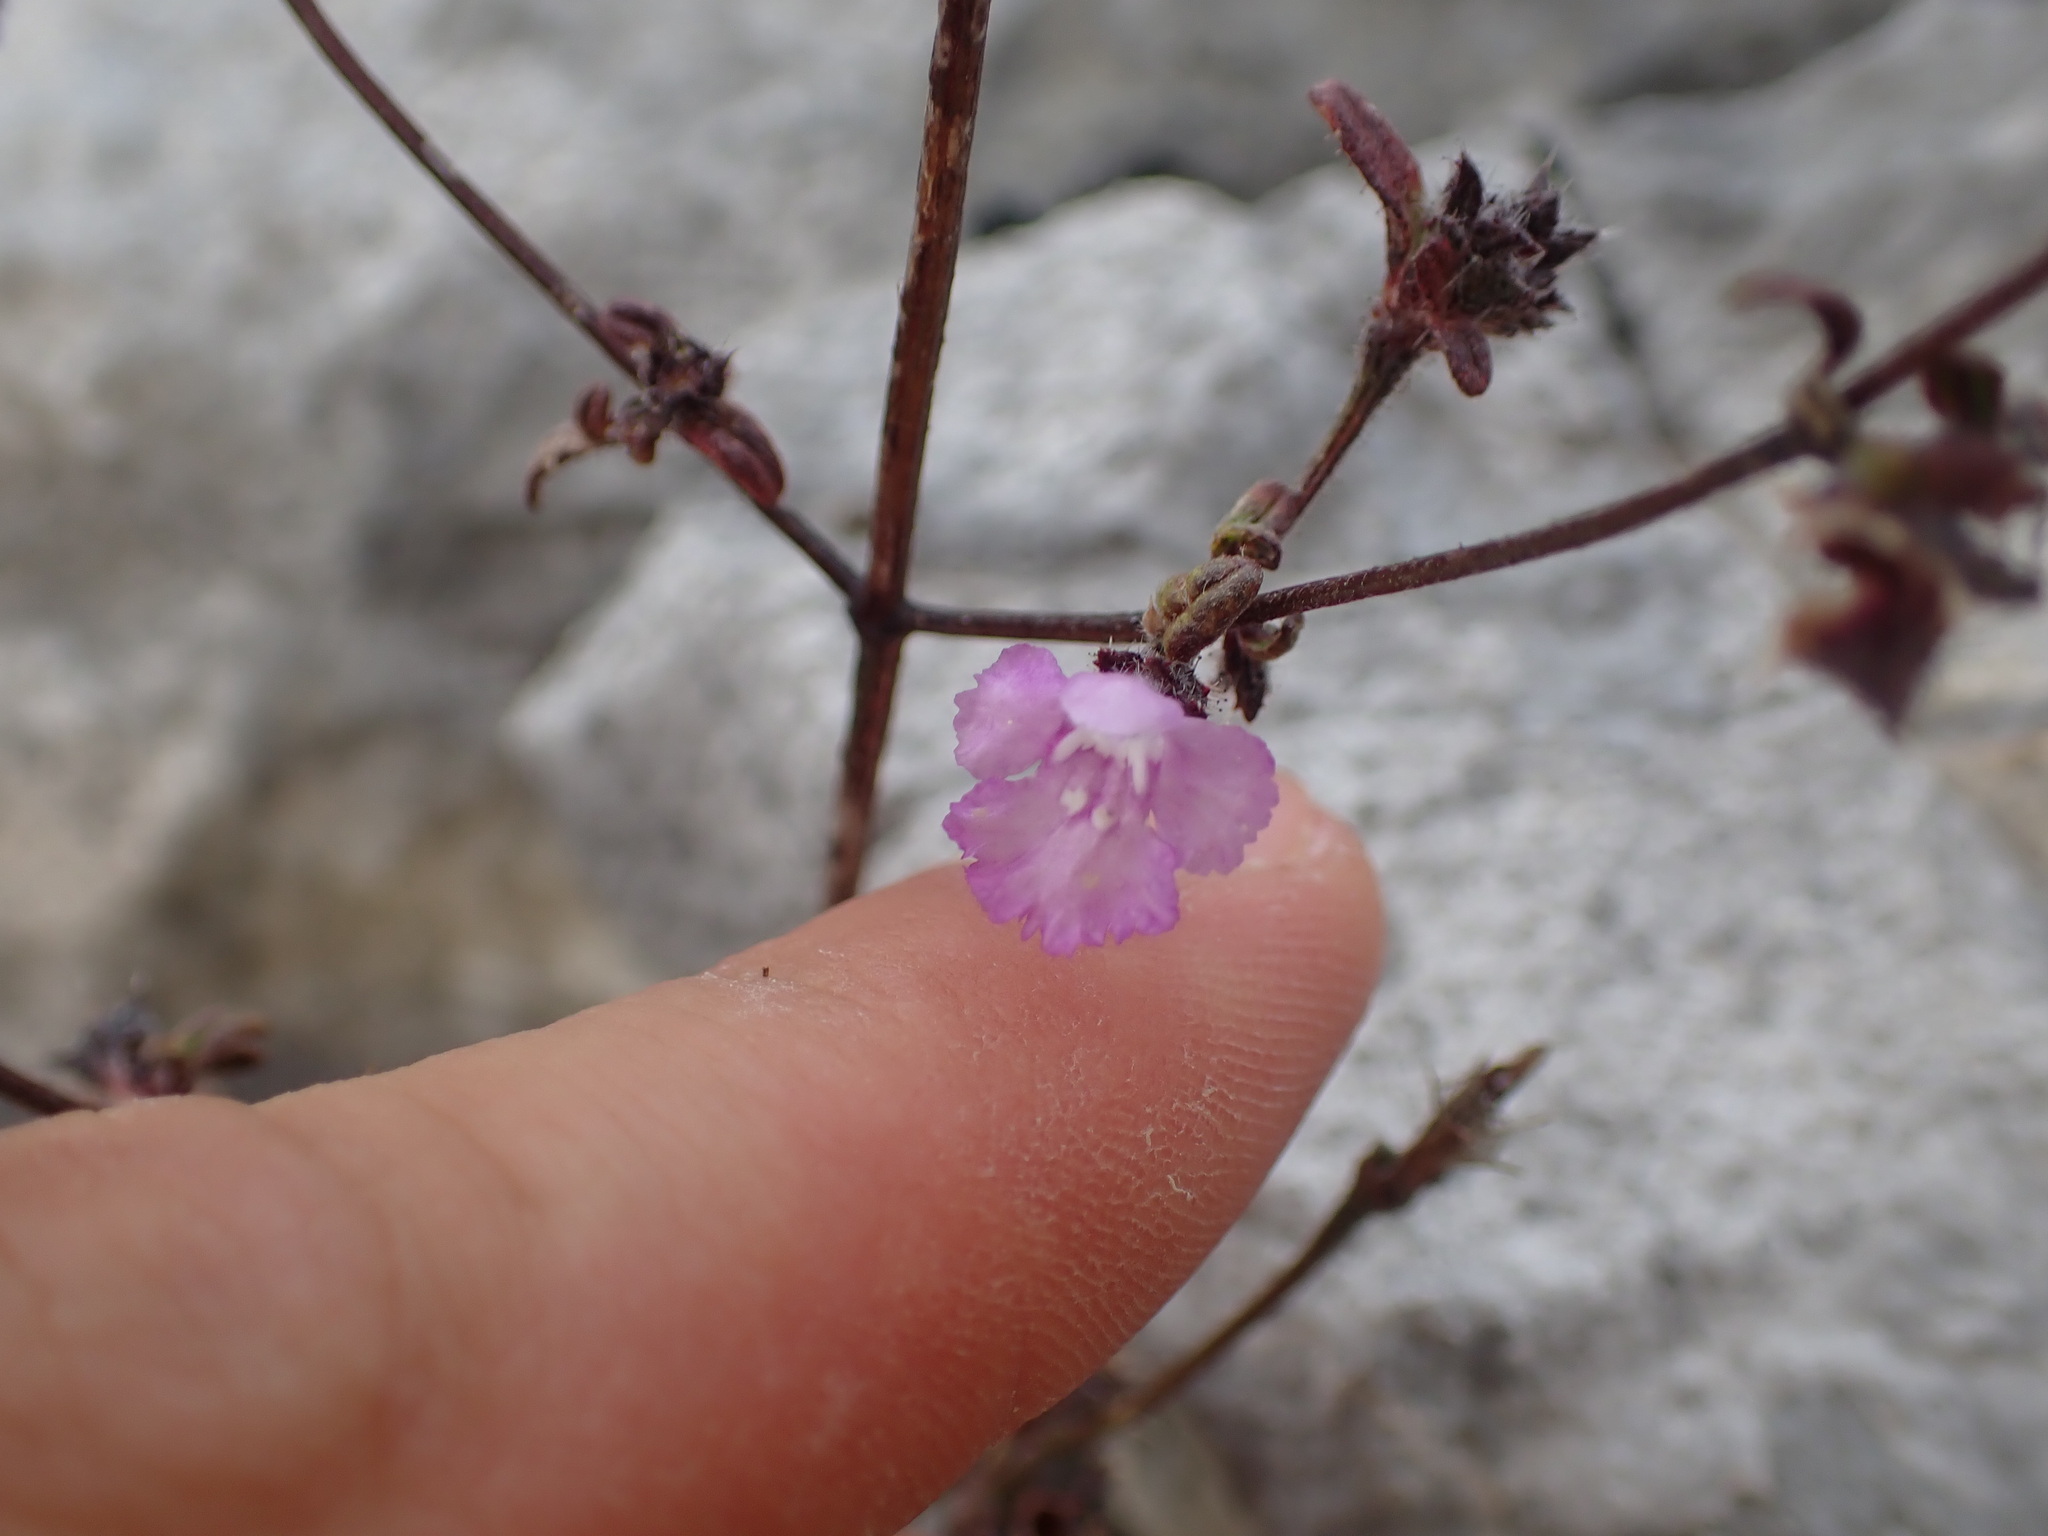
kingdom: Plantae
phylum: Tracheophyta
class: Magnoliopsida
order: Lamiales
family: Lamiaceae
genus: Galeopsis
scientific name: Galeopsis angustifolia
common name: Red hemp-nettle
